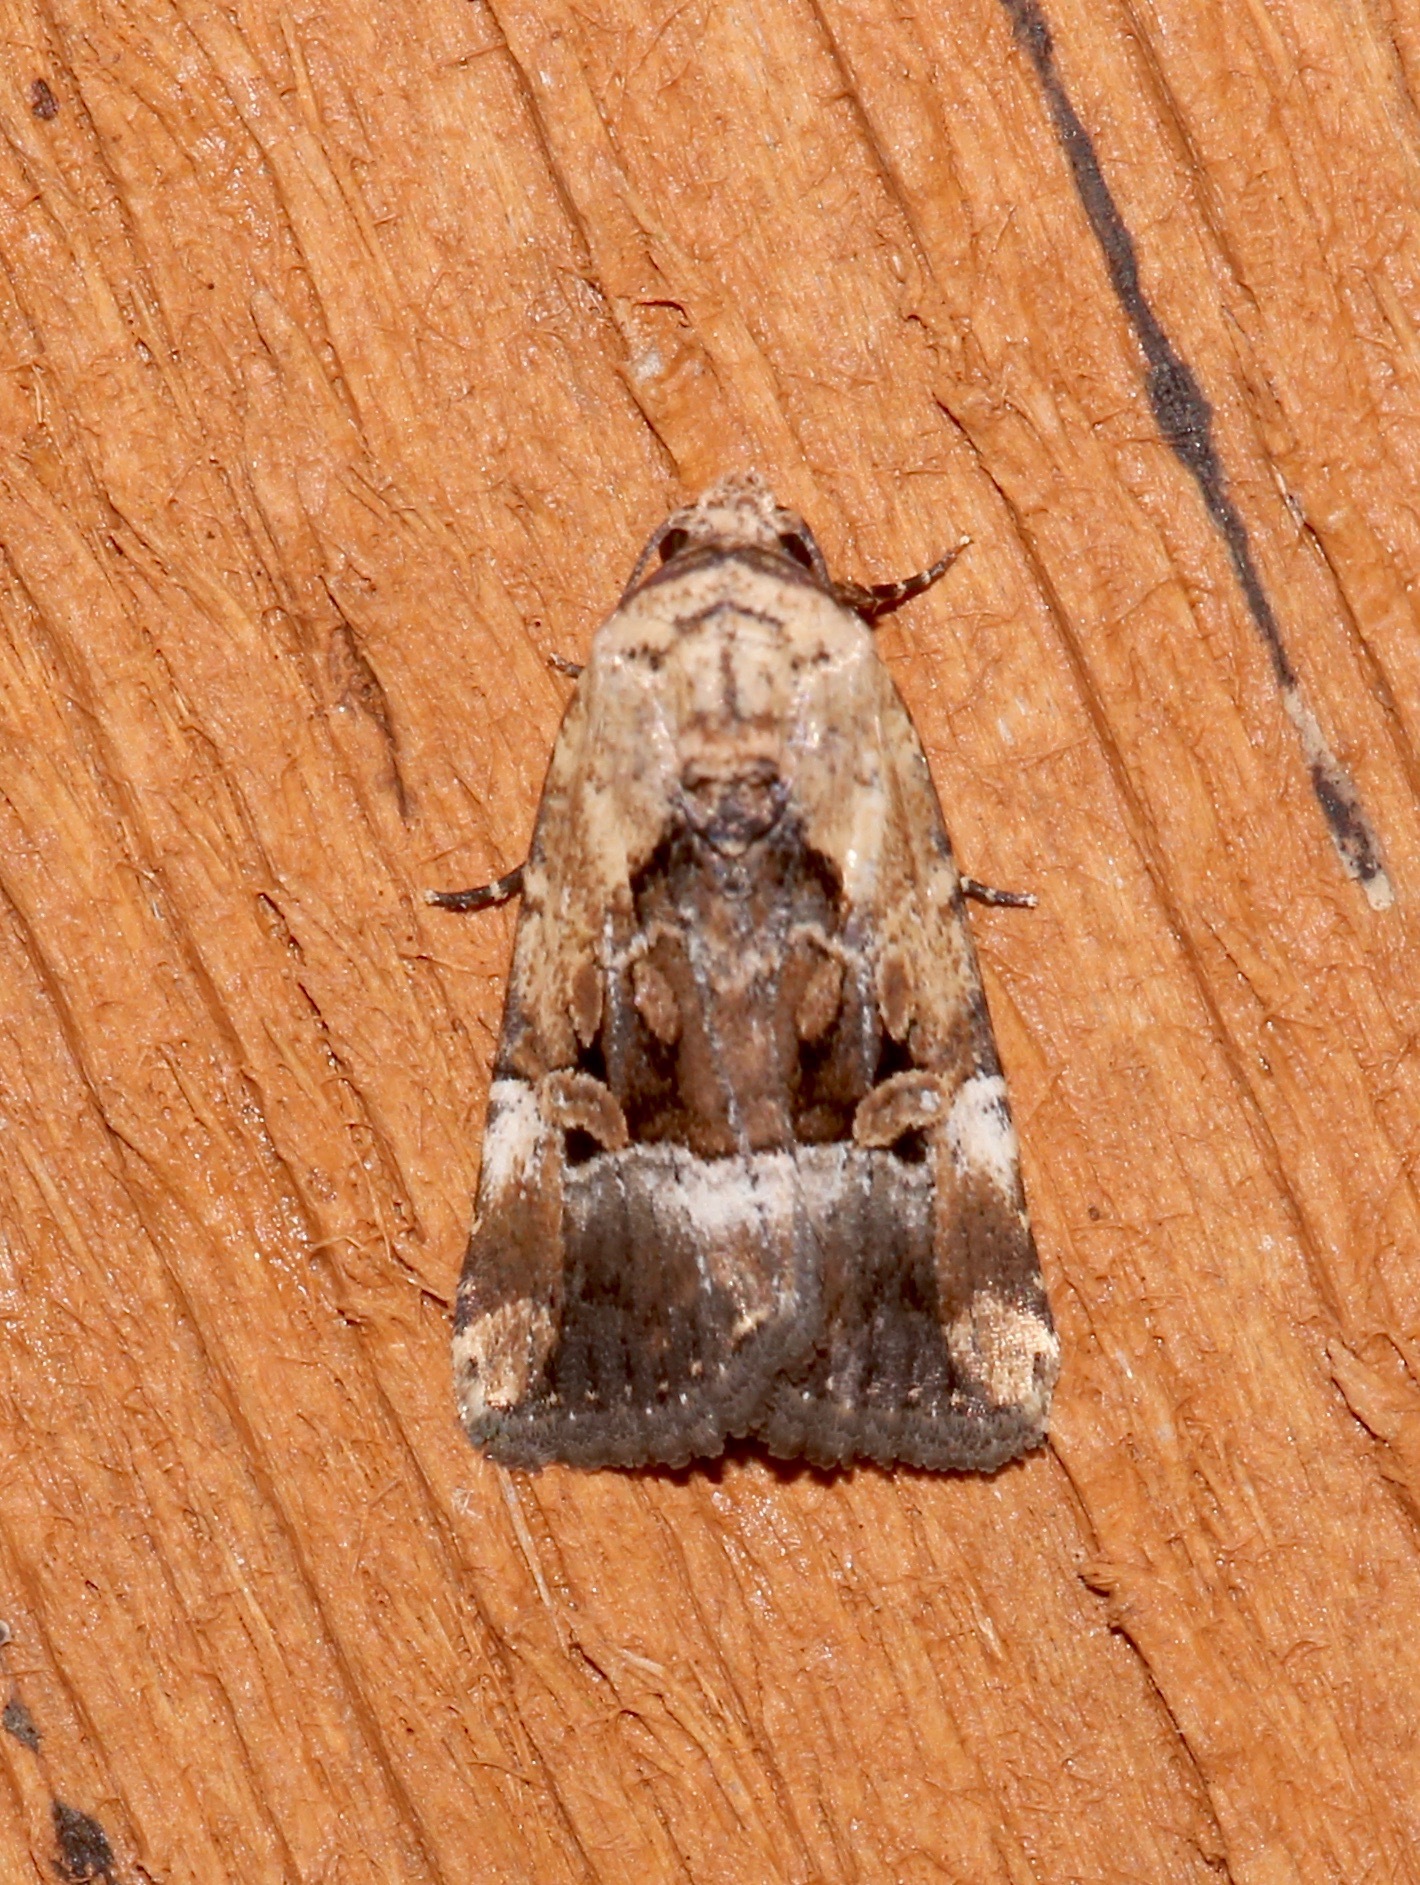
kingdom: Animalia
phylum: Arthropoda
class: Insecta
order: Lepidoptera
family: Noctuidae
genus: Elaphria
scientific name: Elaphria chalcedonia
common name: Chalcedony midget
